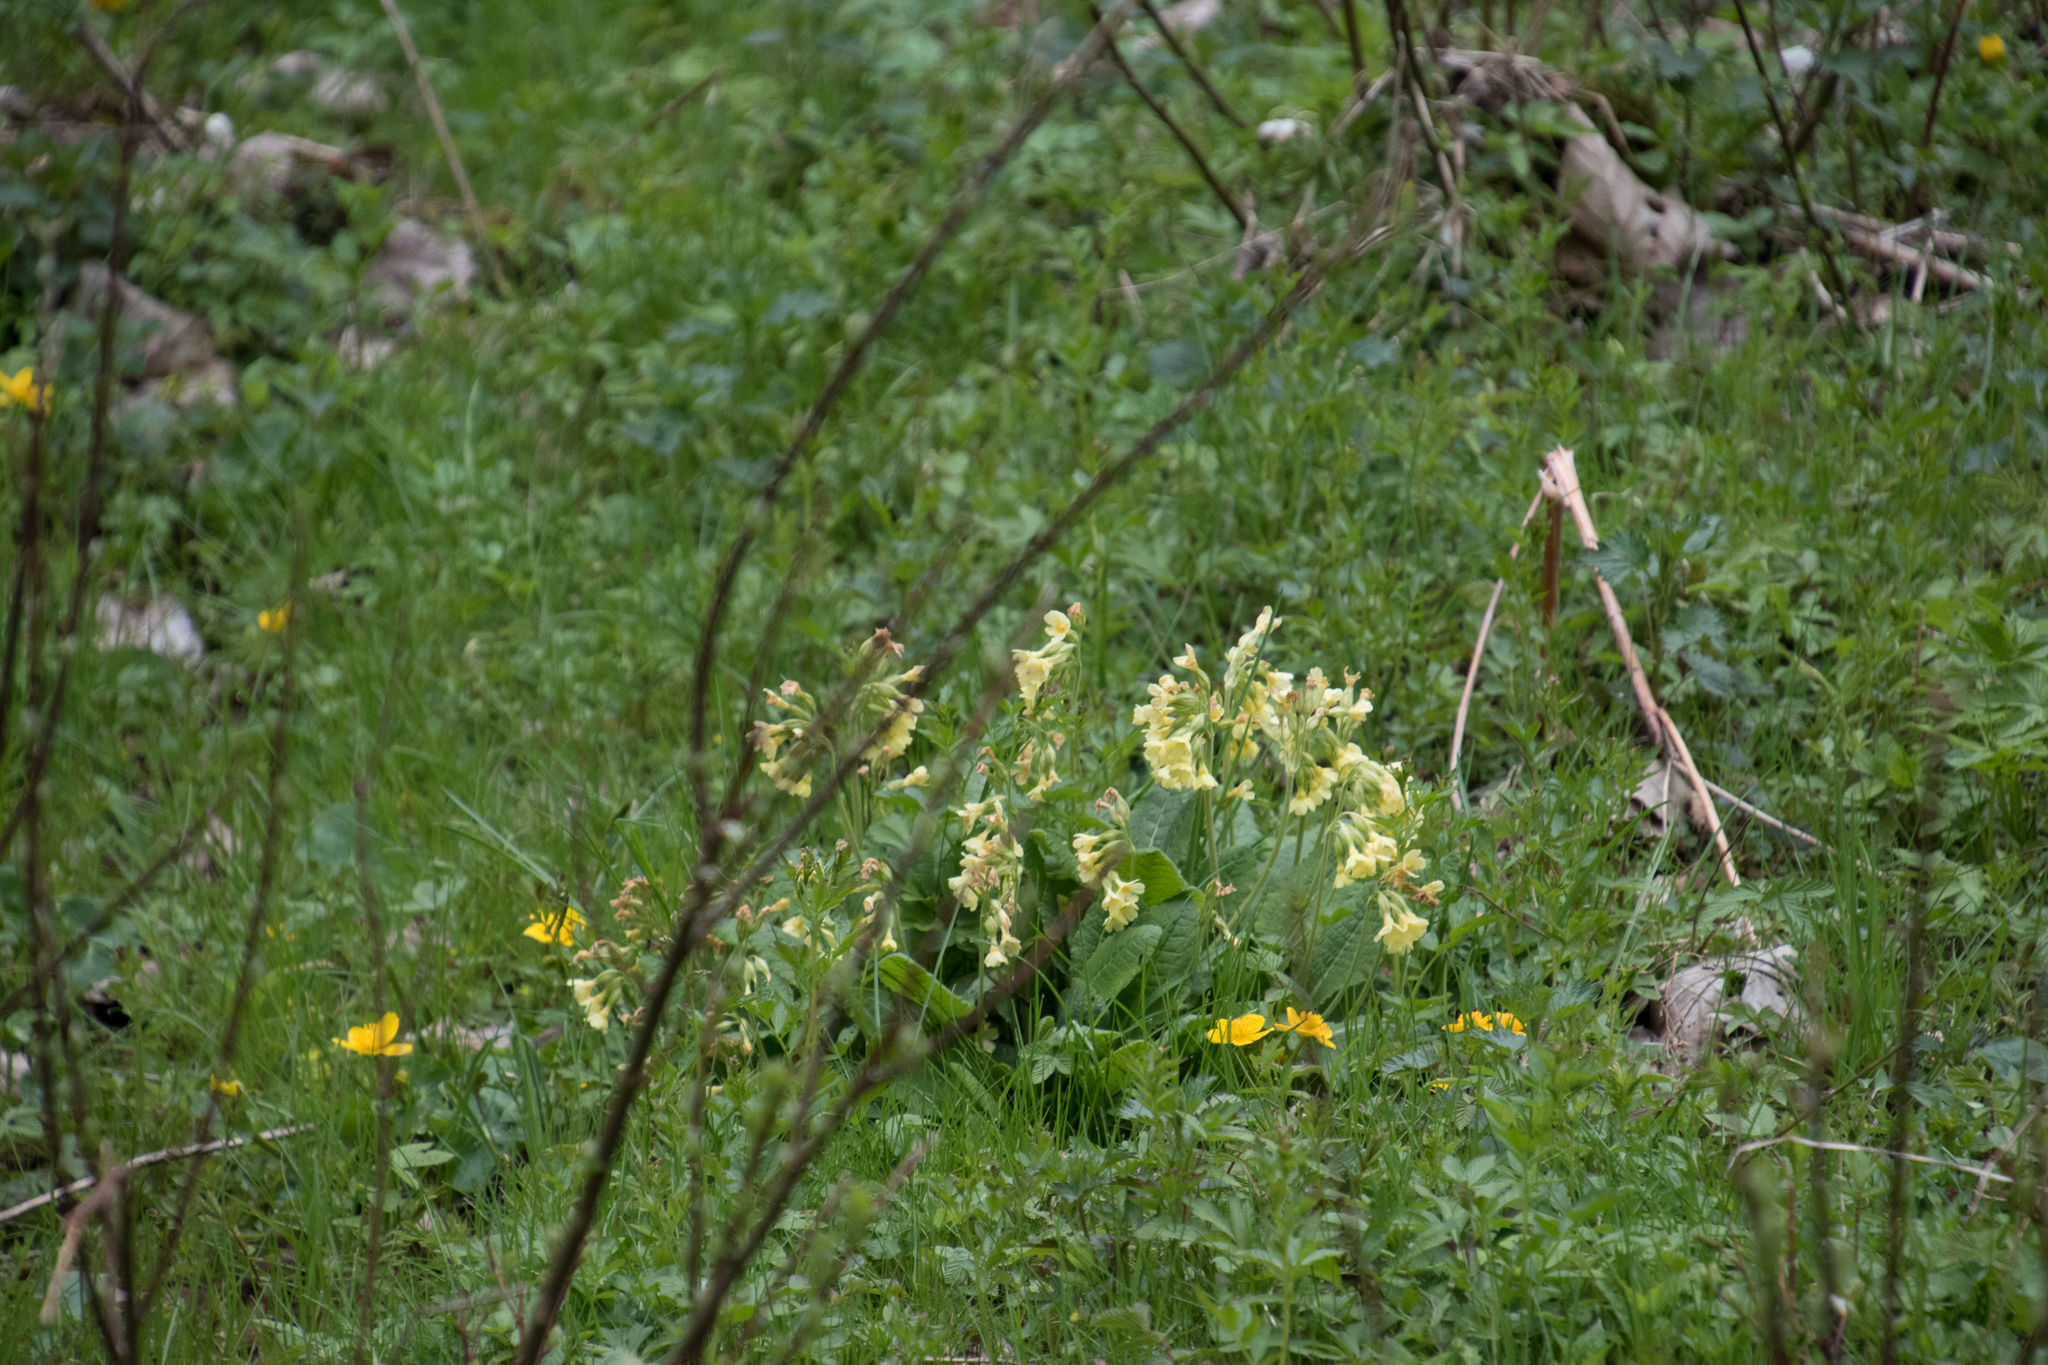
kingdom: Plantae
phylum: Tracheophyta
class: Magnoliopsida
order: Ericales
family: Primulaceae
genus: Primula
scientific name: Primula elatior
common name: Oxlip
